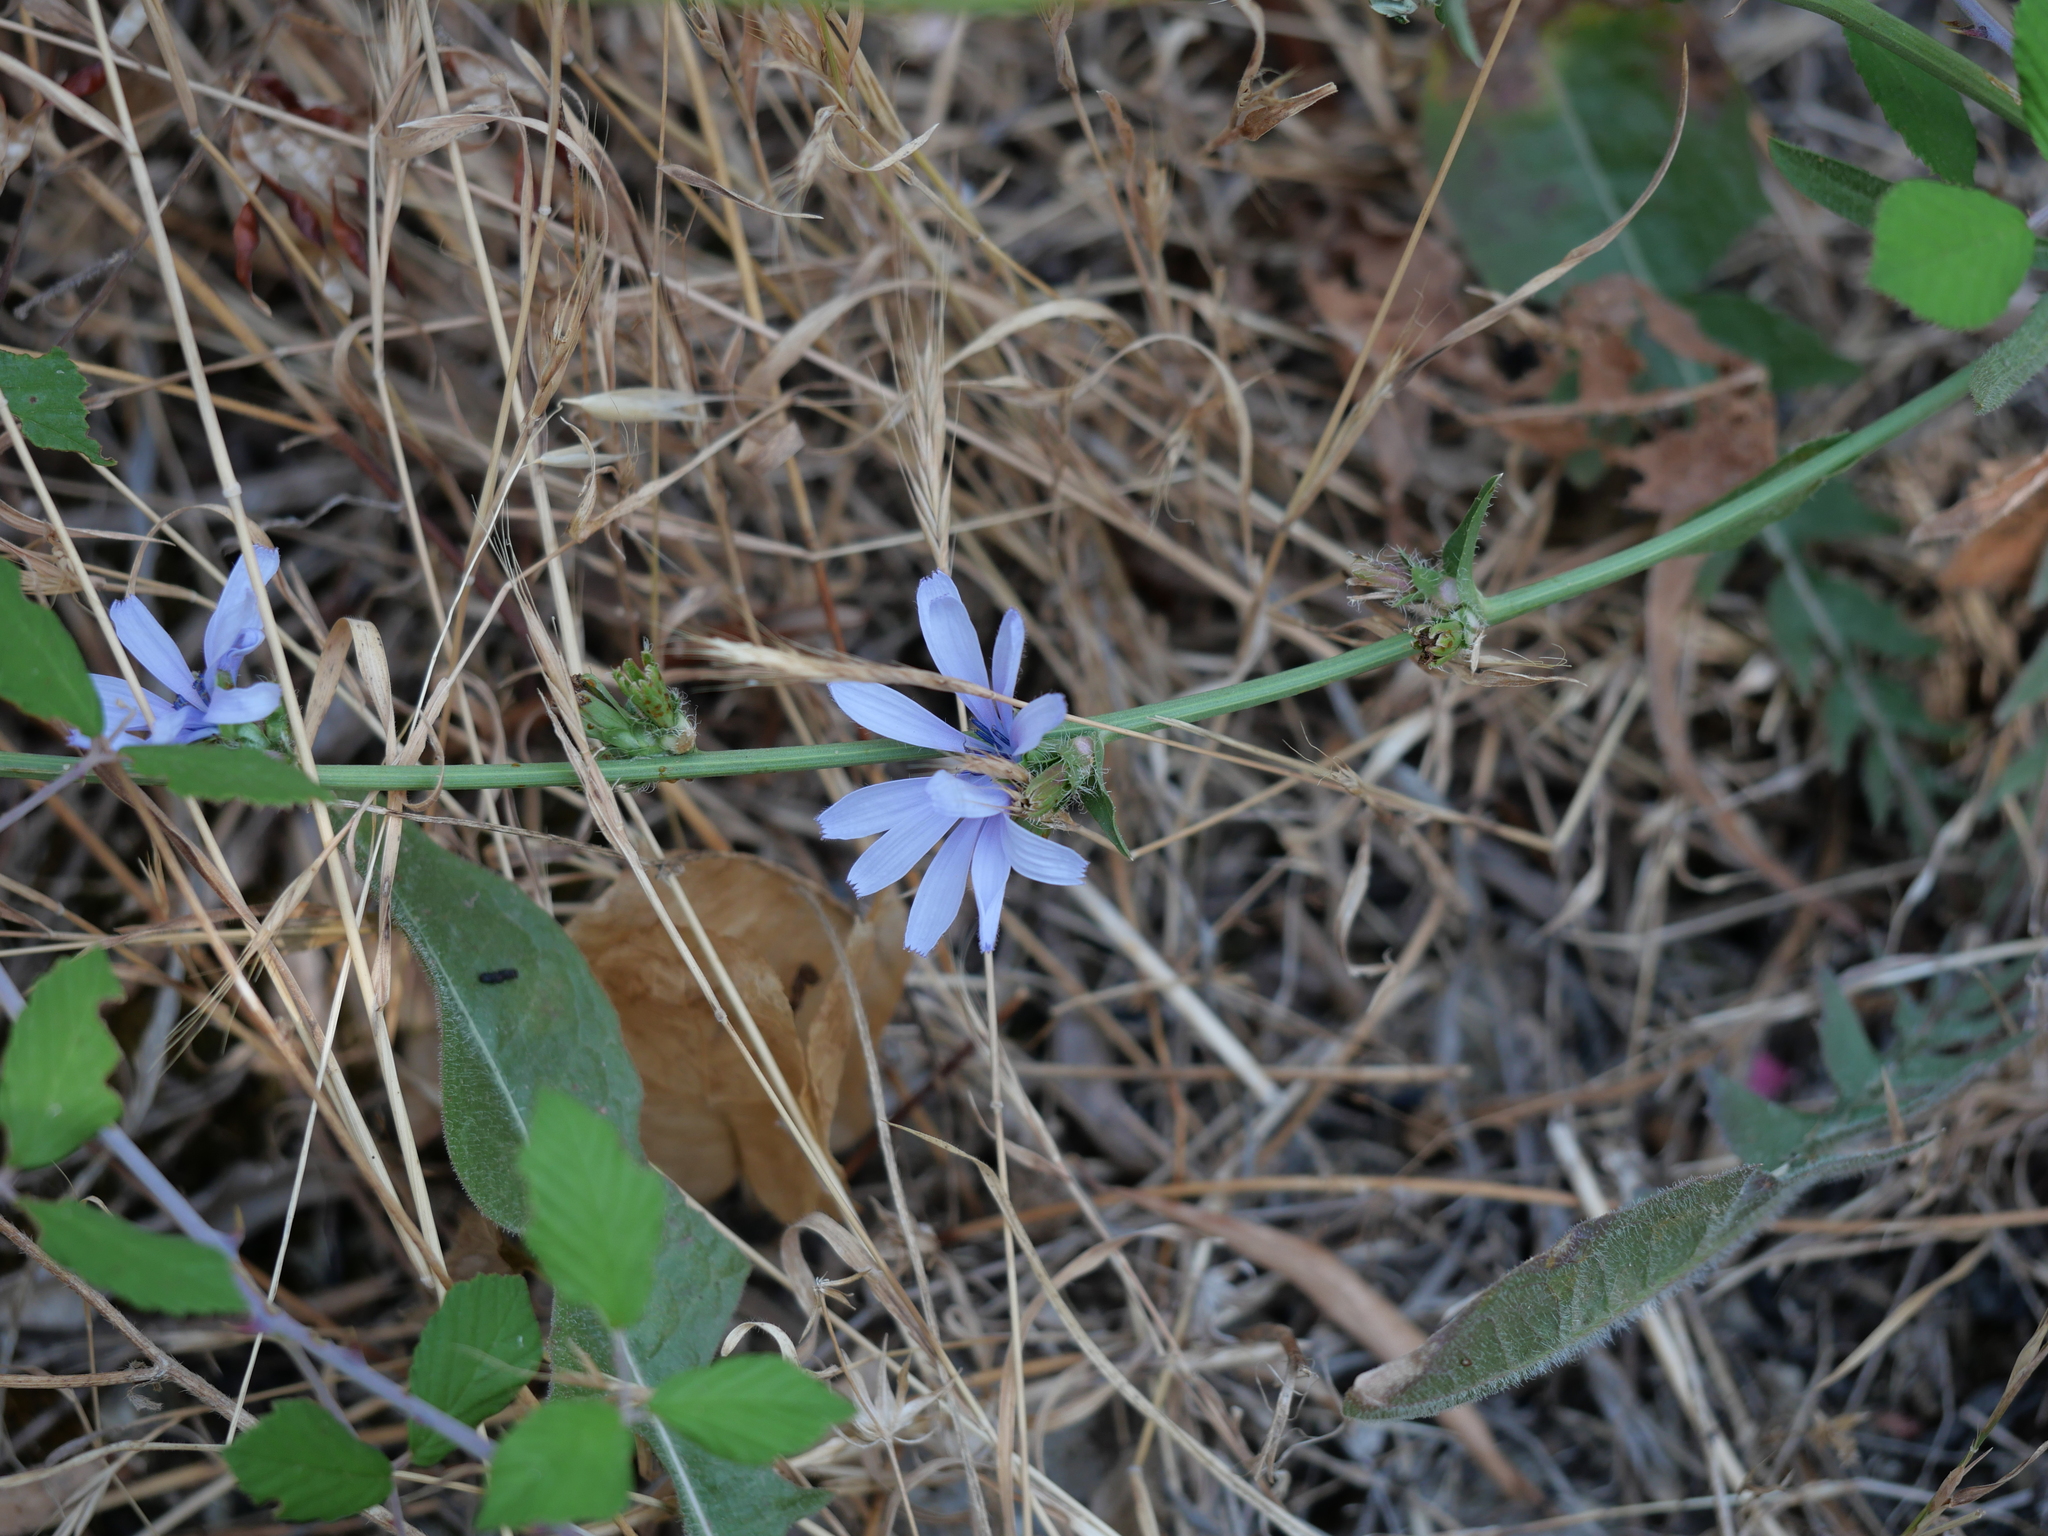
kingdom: Plantae
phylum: Tracheophyta
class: Magnoliopsida
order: Asterales
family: Asteraceae
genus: Cichorium
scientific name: Cichorium intybus
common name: Chicory
